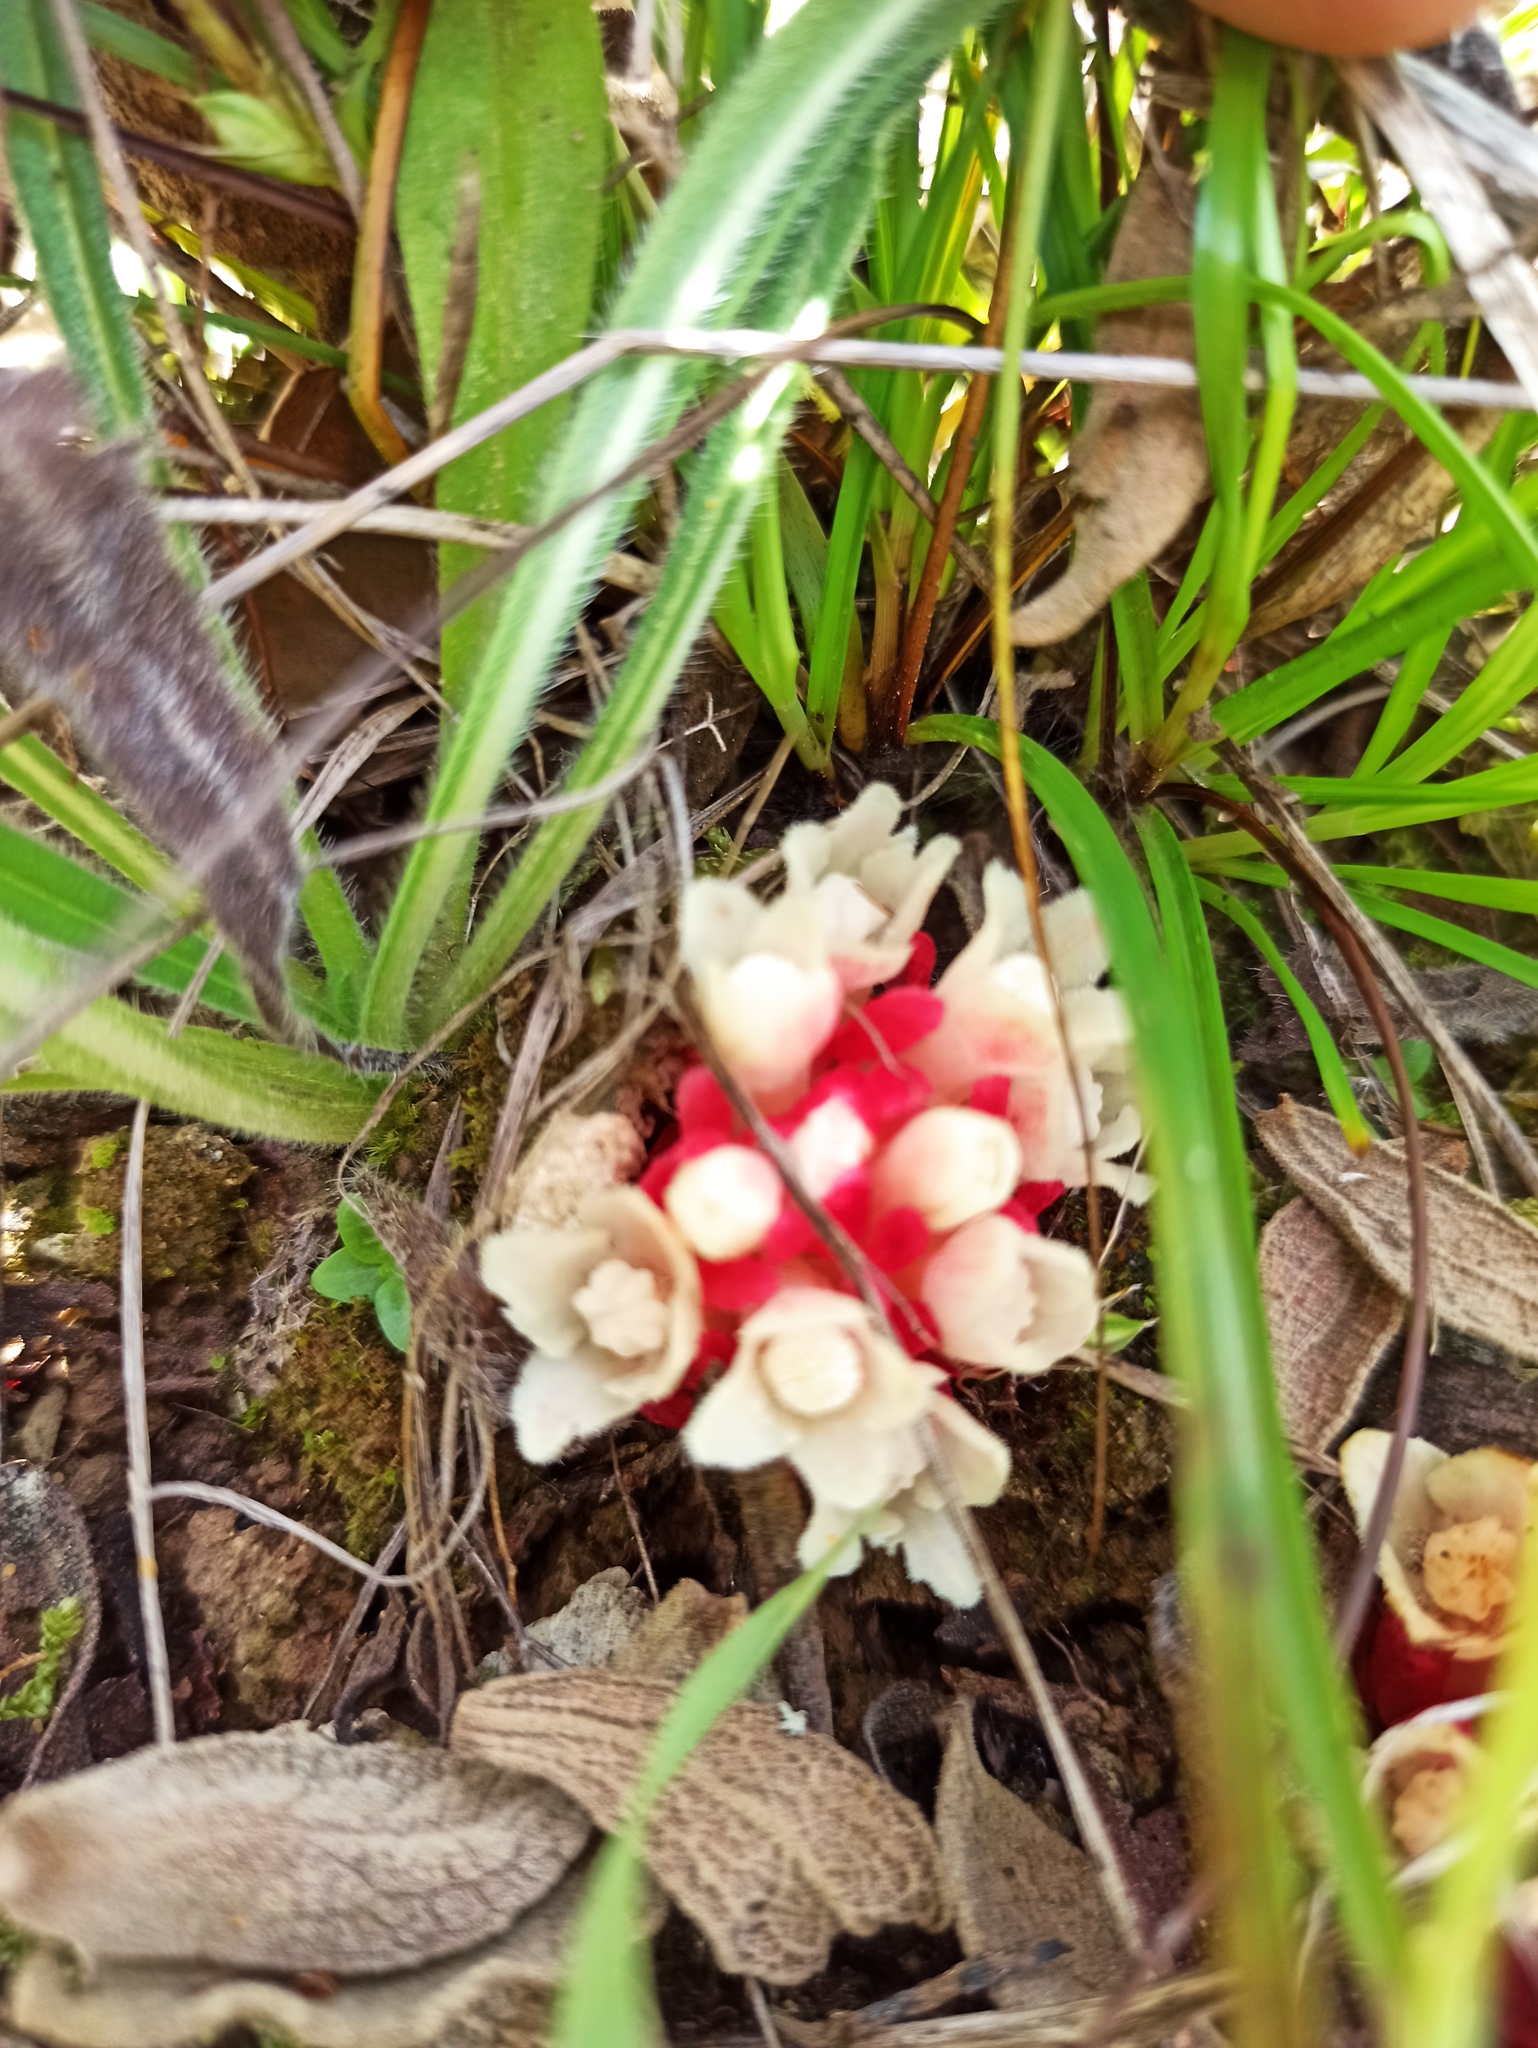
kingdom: Plantae
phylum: Tracheophyta
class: Magnoliopsida
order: Malvales
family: Cytinaceae
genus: Cytinus
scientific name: Cytinus ruber
